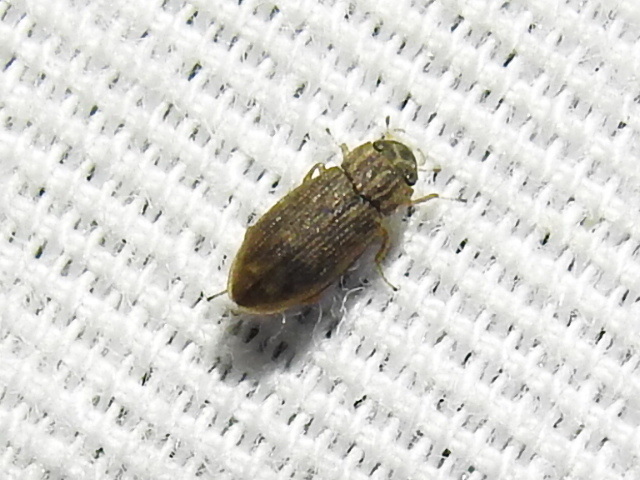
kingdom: Animalia
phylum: Arthropoda
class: Insecta
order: Coleoptera
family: Helophoridae
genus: Helophorus
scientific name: Helophorus
